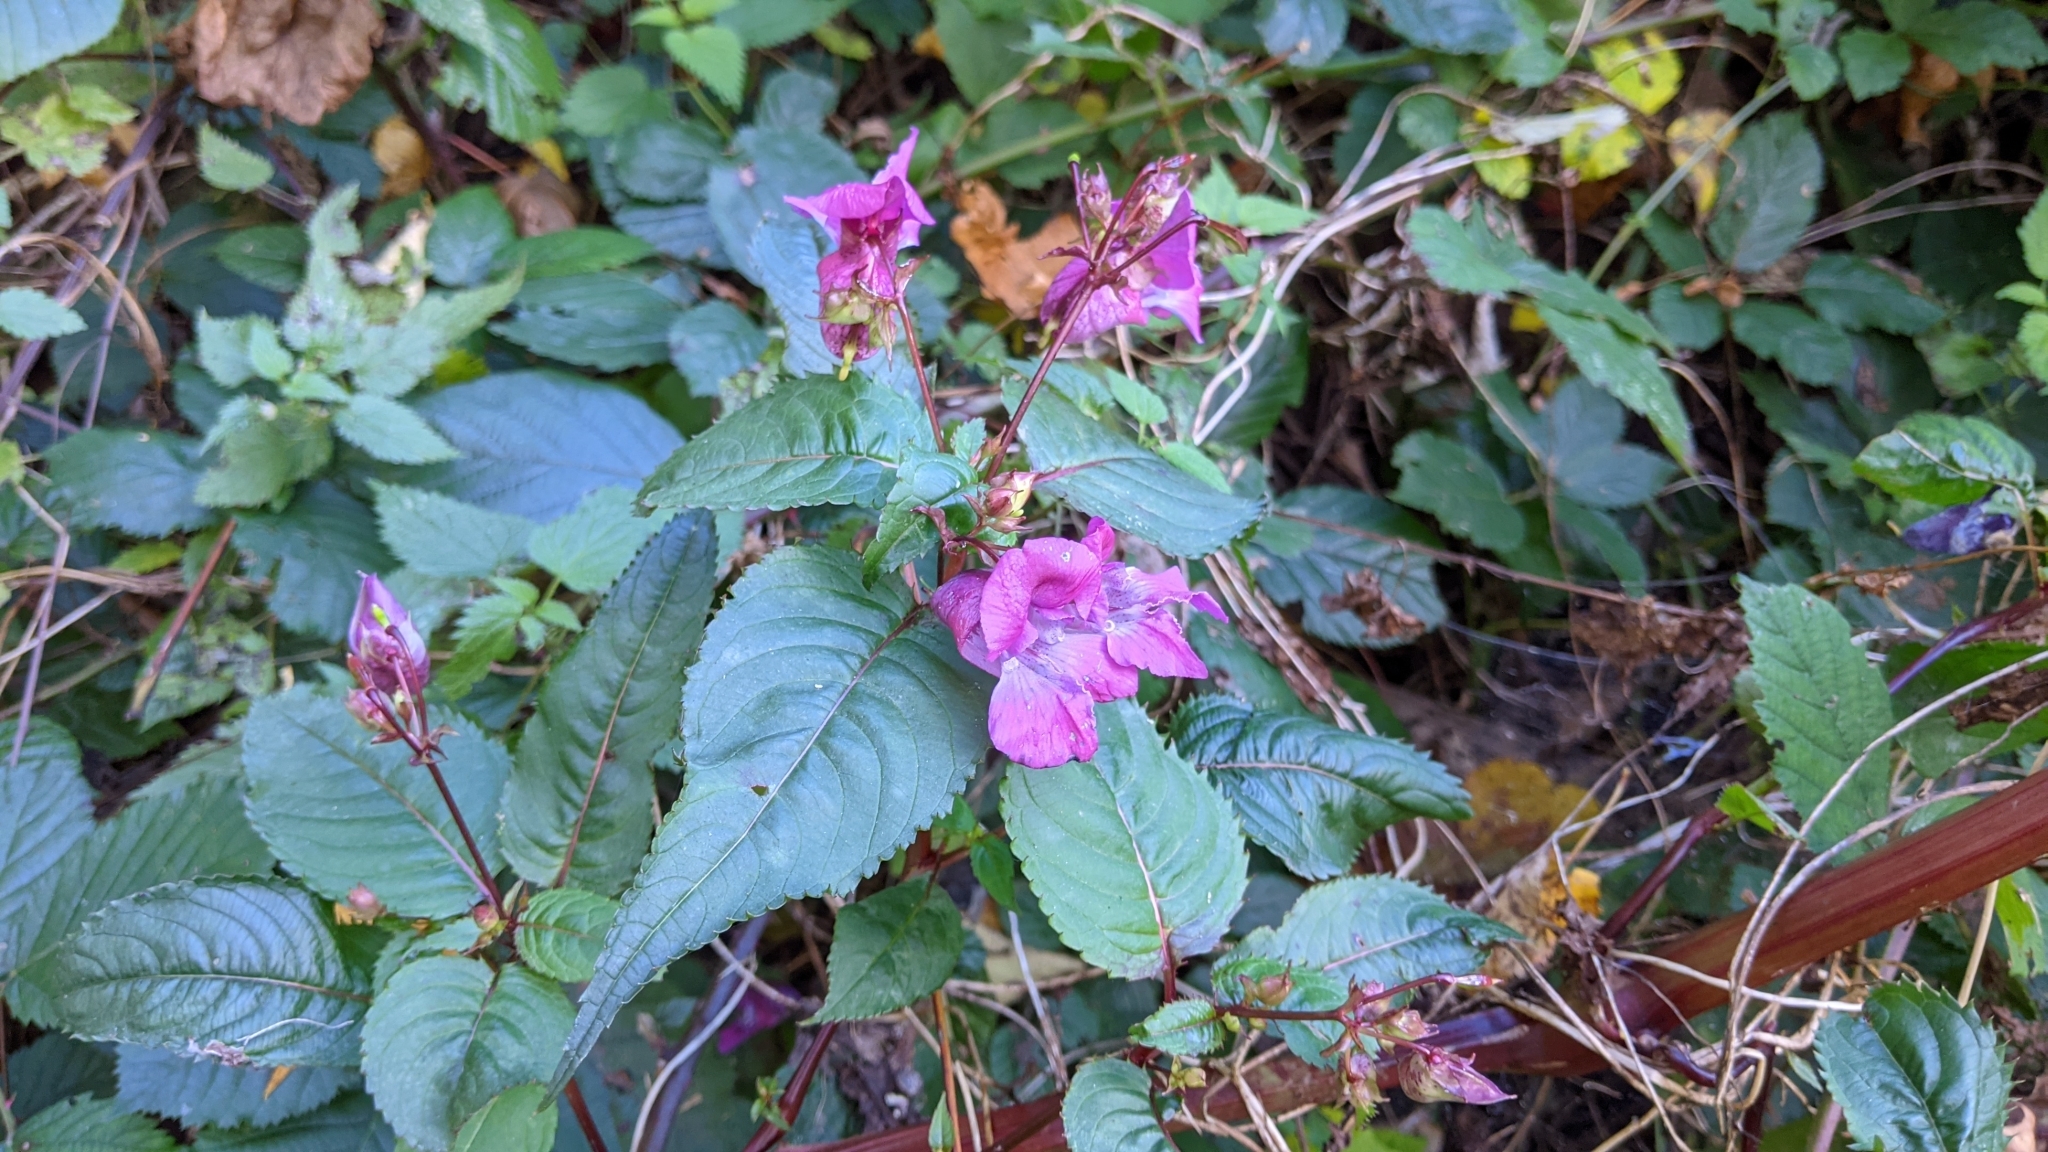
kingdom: Plantae
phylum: Tracheophyta
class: Magnoliopsida
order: Ericales
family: Balsaminaceae
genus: Impatiens
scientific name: Impatiens glandulifera
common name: Himalayan balsam
